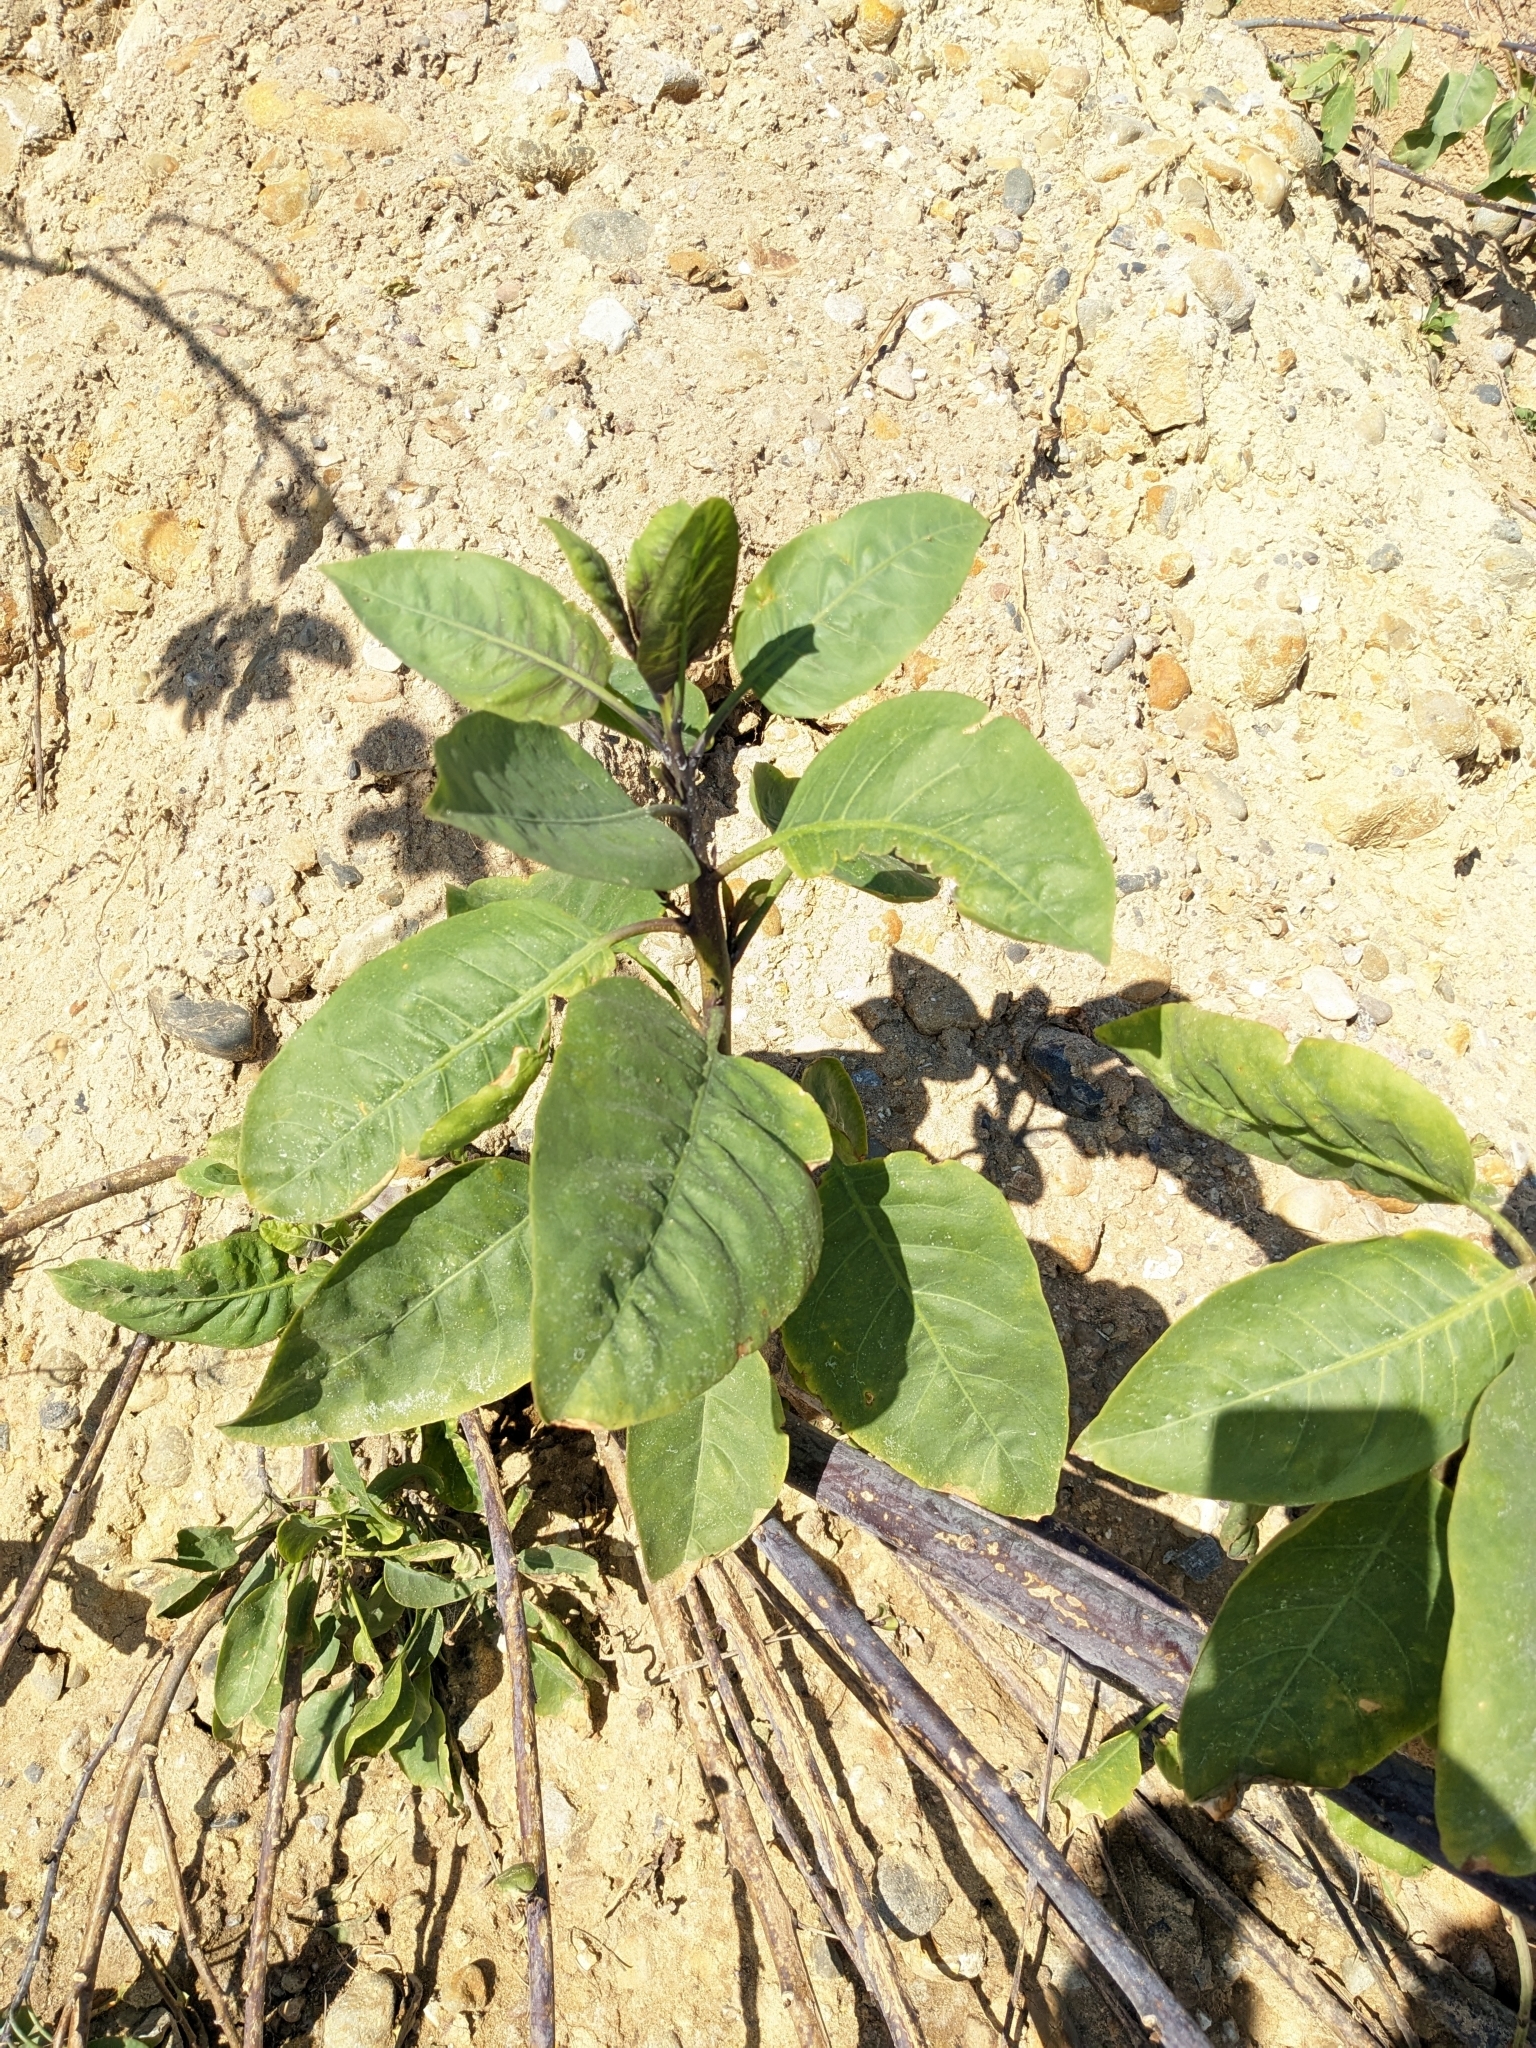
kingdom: Plantae
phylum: Tracheophyta
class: Magnoliopsida
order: Solanales
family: Solanaceae
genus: Nicotiana
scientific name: Nicotiana glauca
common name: Tree tobacco
